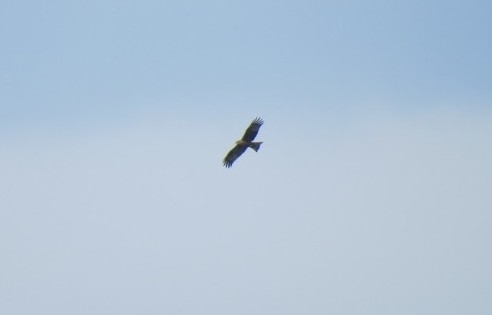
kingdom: Animalia
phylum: Chordata
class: Aves
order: Accipitriformes
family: Accipitridae
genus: Milvus
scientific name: Milvus migrans
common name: Black kite
